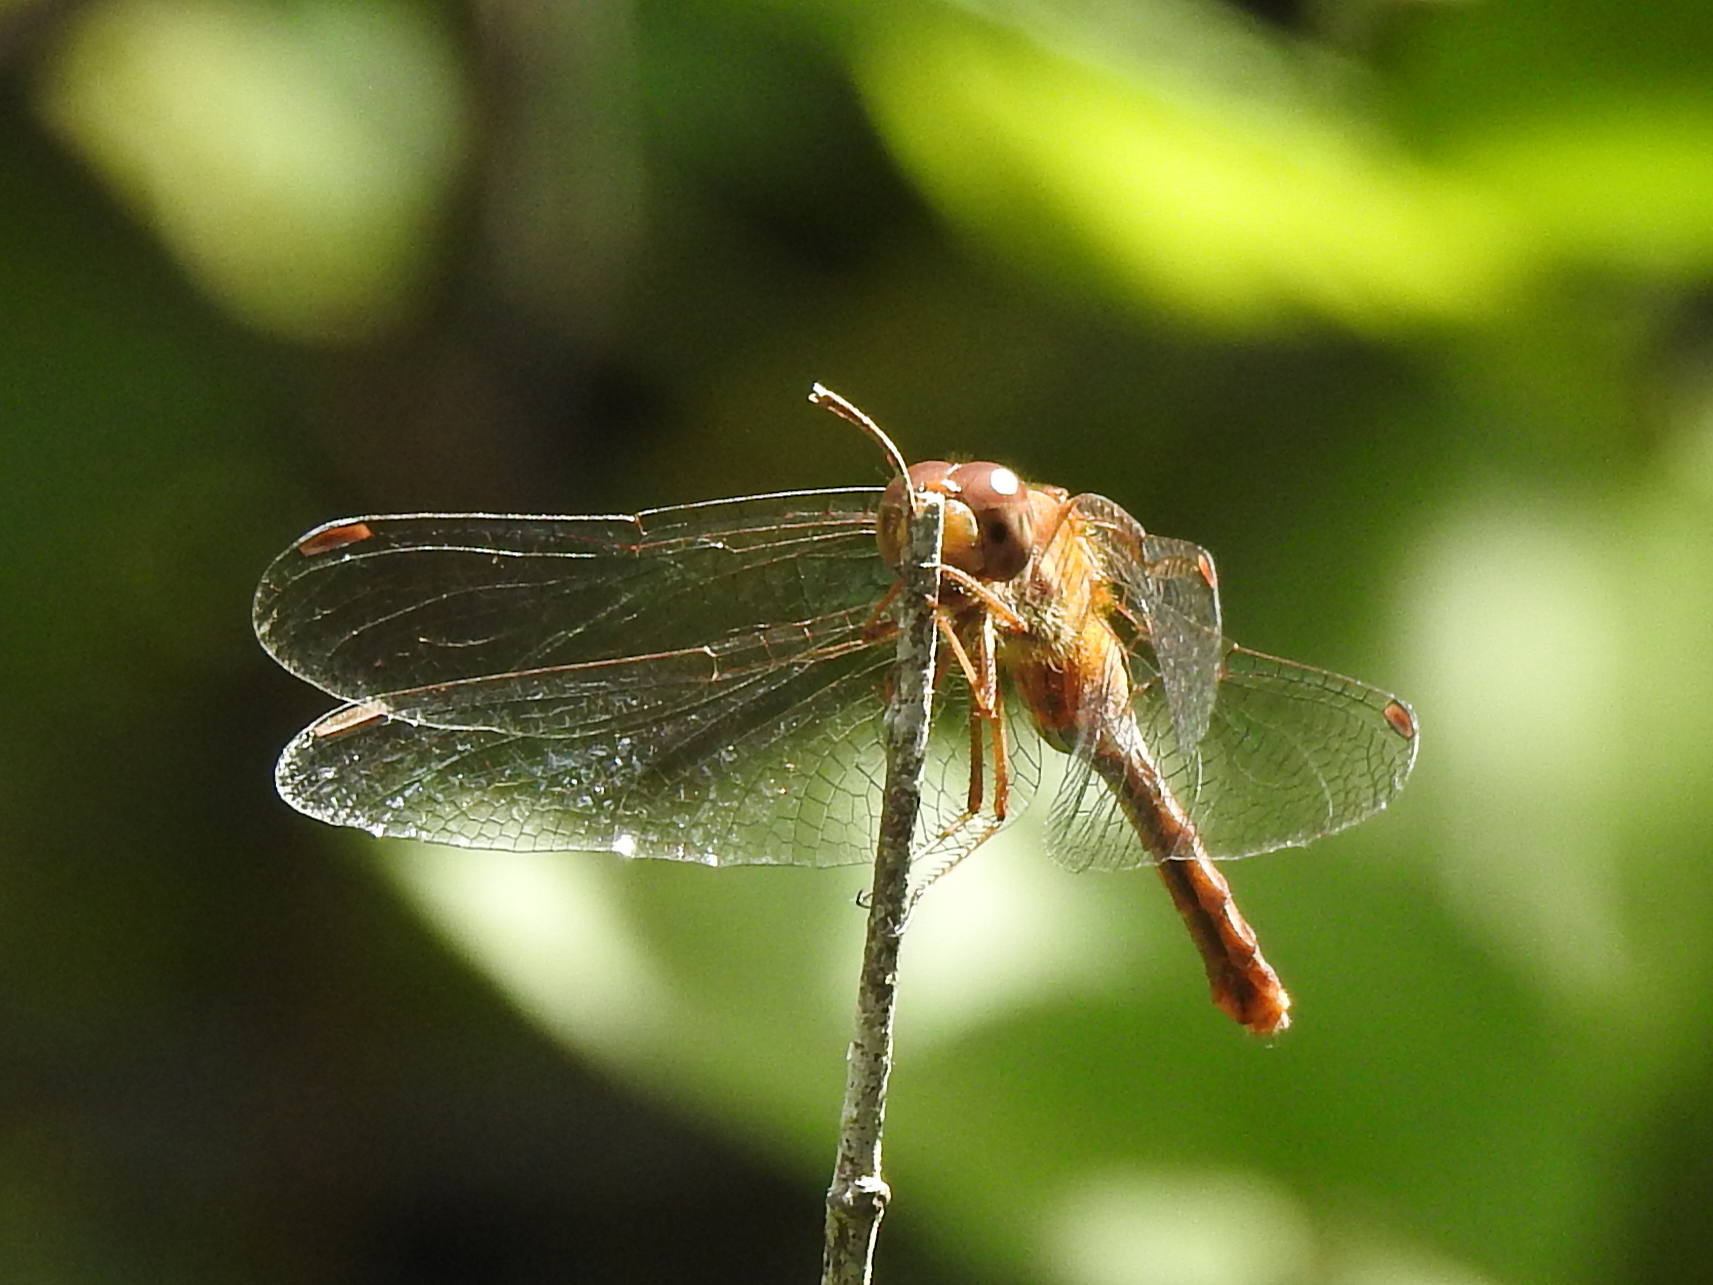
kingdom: Animalia
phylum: Arthropoda
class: Insecta
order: Odonata
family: Libellulidae
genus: Sympetrum
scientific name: Sympetrum vicinum
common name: Autumn meadowhawk
